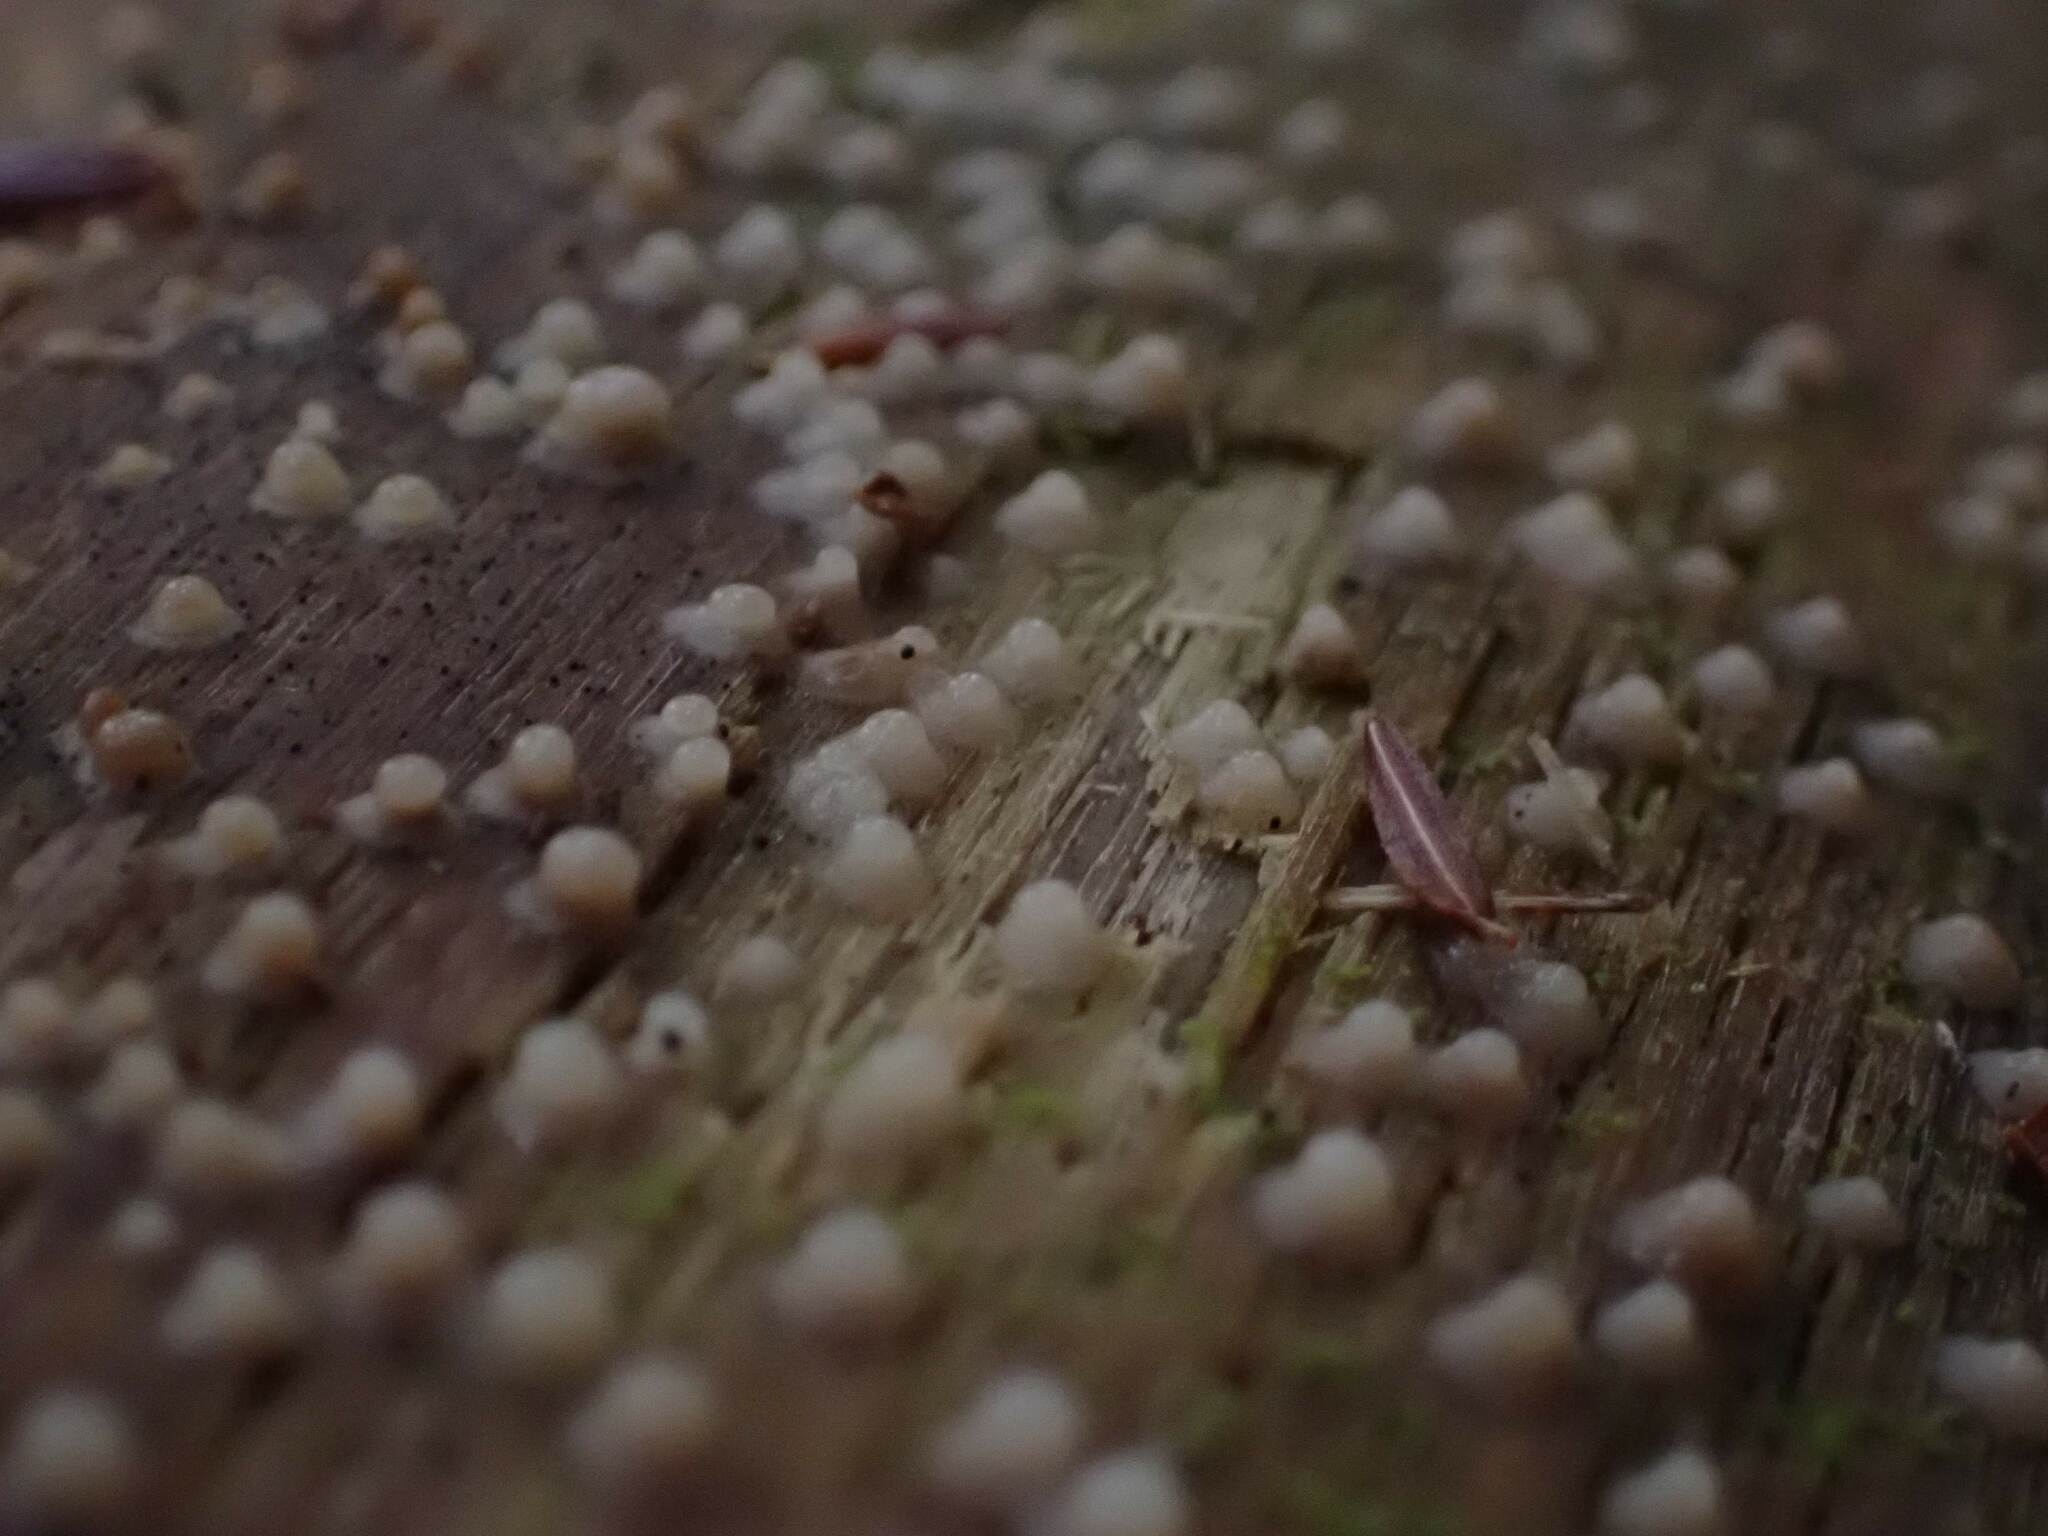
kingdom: Fungi
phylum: Basidiomycota
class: Atractiellomycetes
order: Atractiellales
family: Phleogenaceae
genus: Helicogloea
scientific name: Helicogloea compressa
